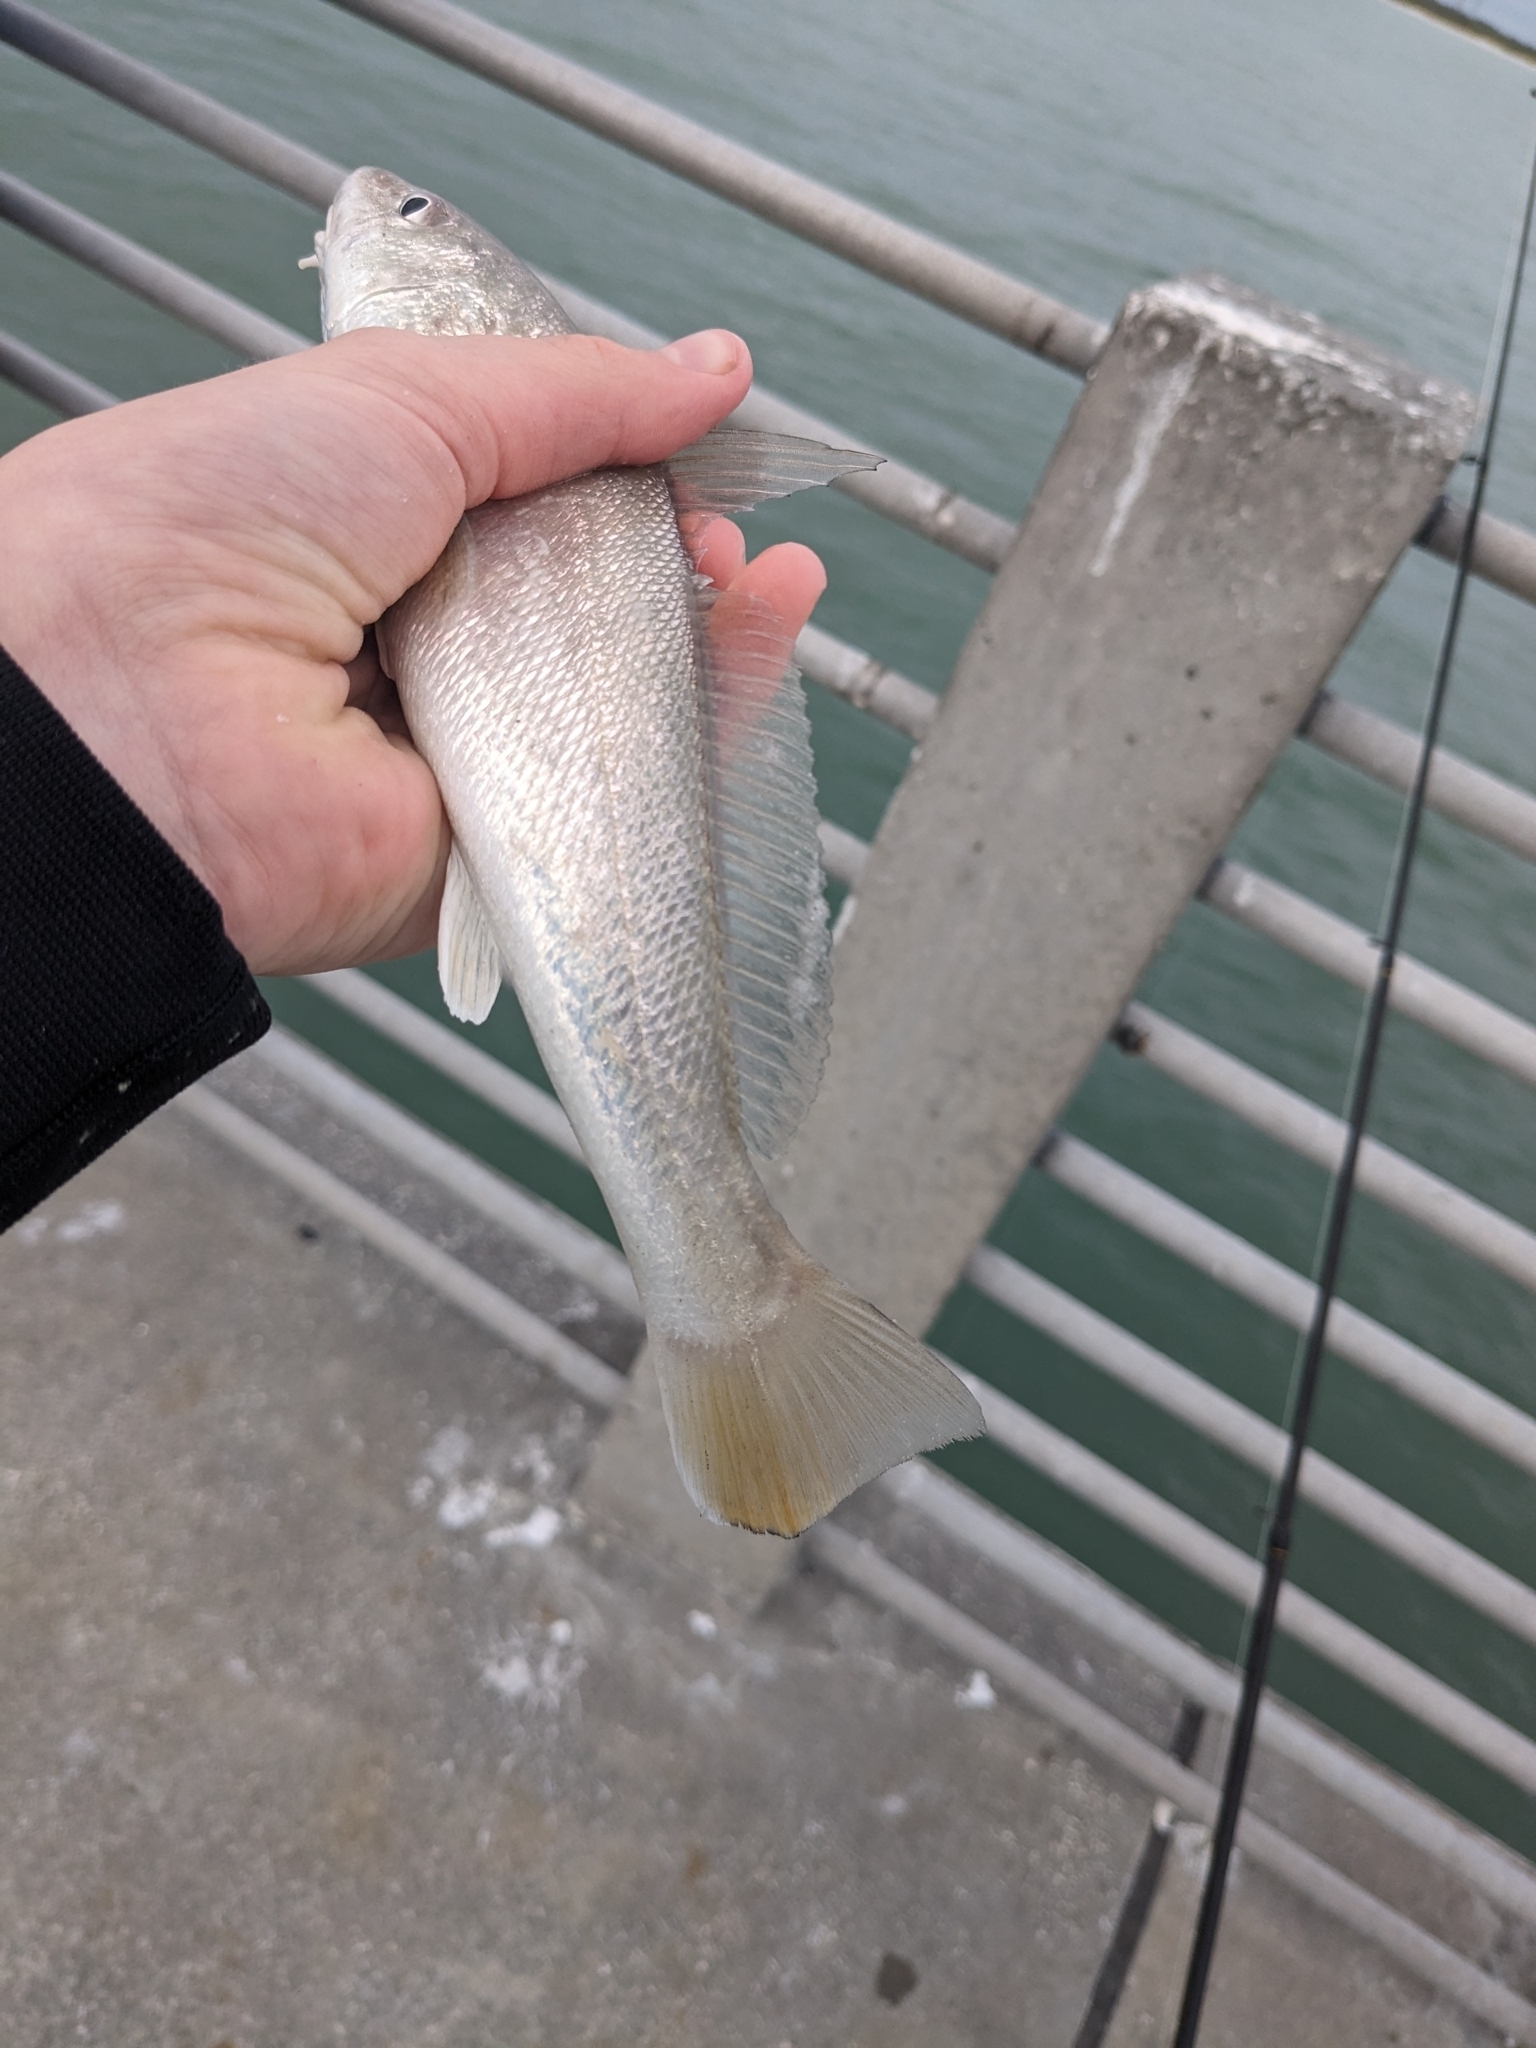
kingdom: Animalia
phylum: Chordata
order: Perciformes
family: Sciaenidae
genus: Menticirrhus
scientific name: Menticirrhus americanus
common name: Southern kingfish
